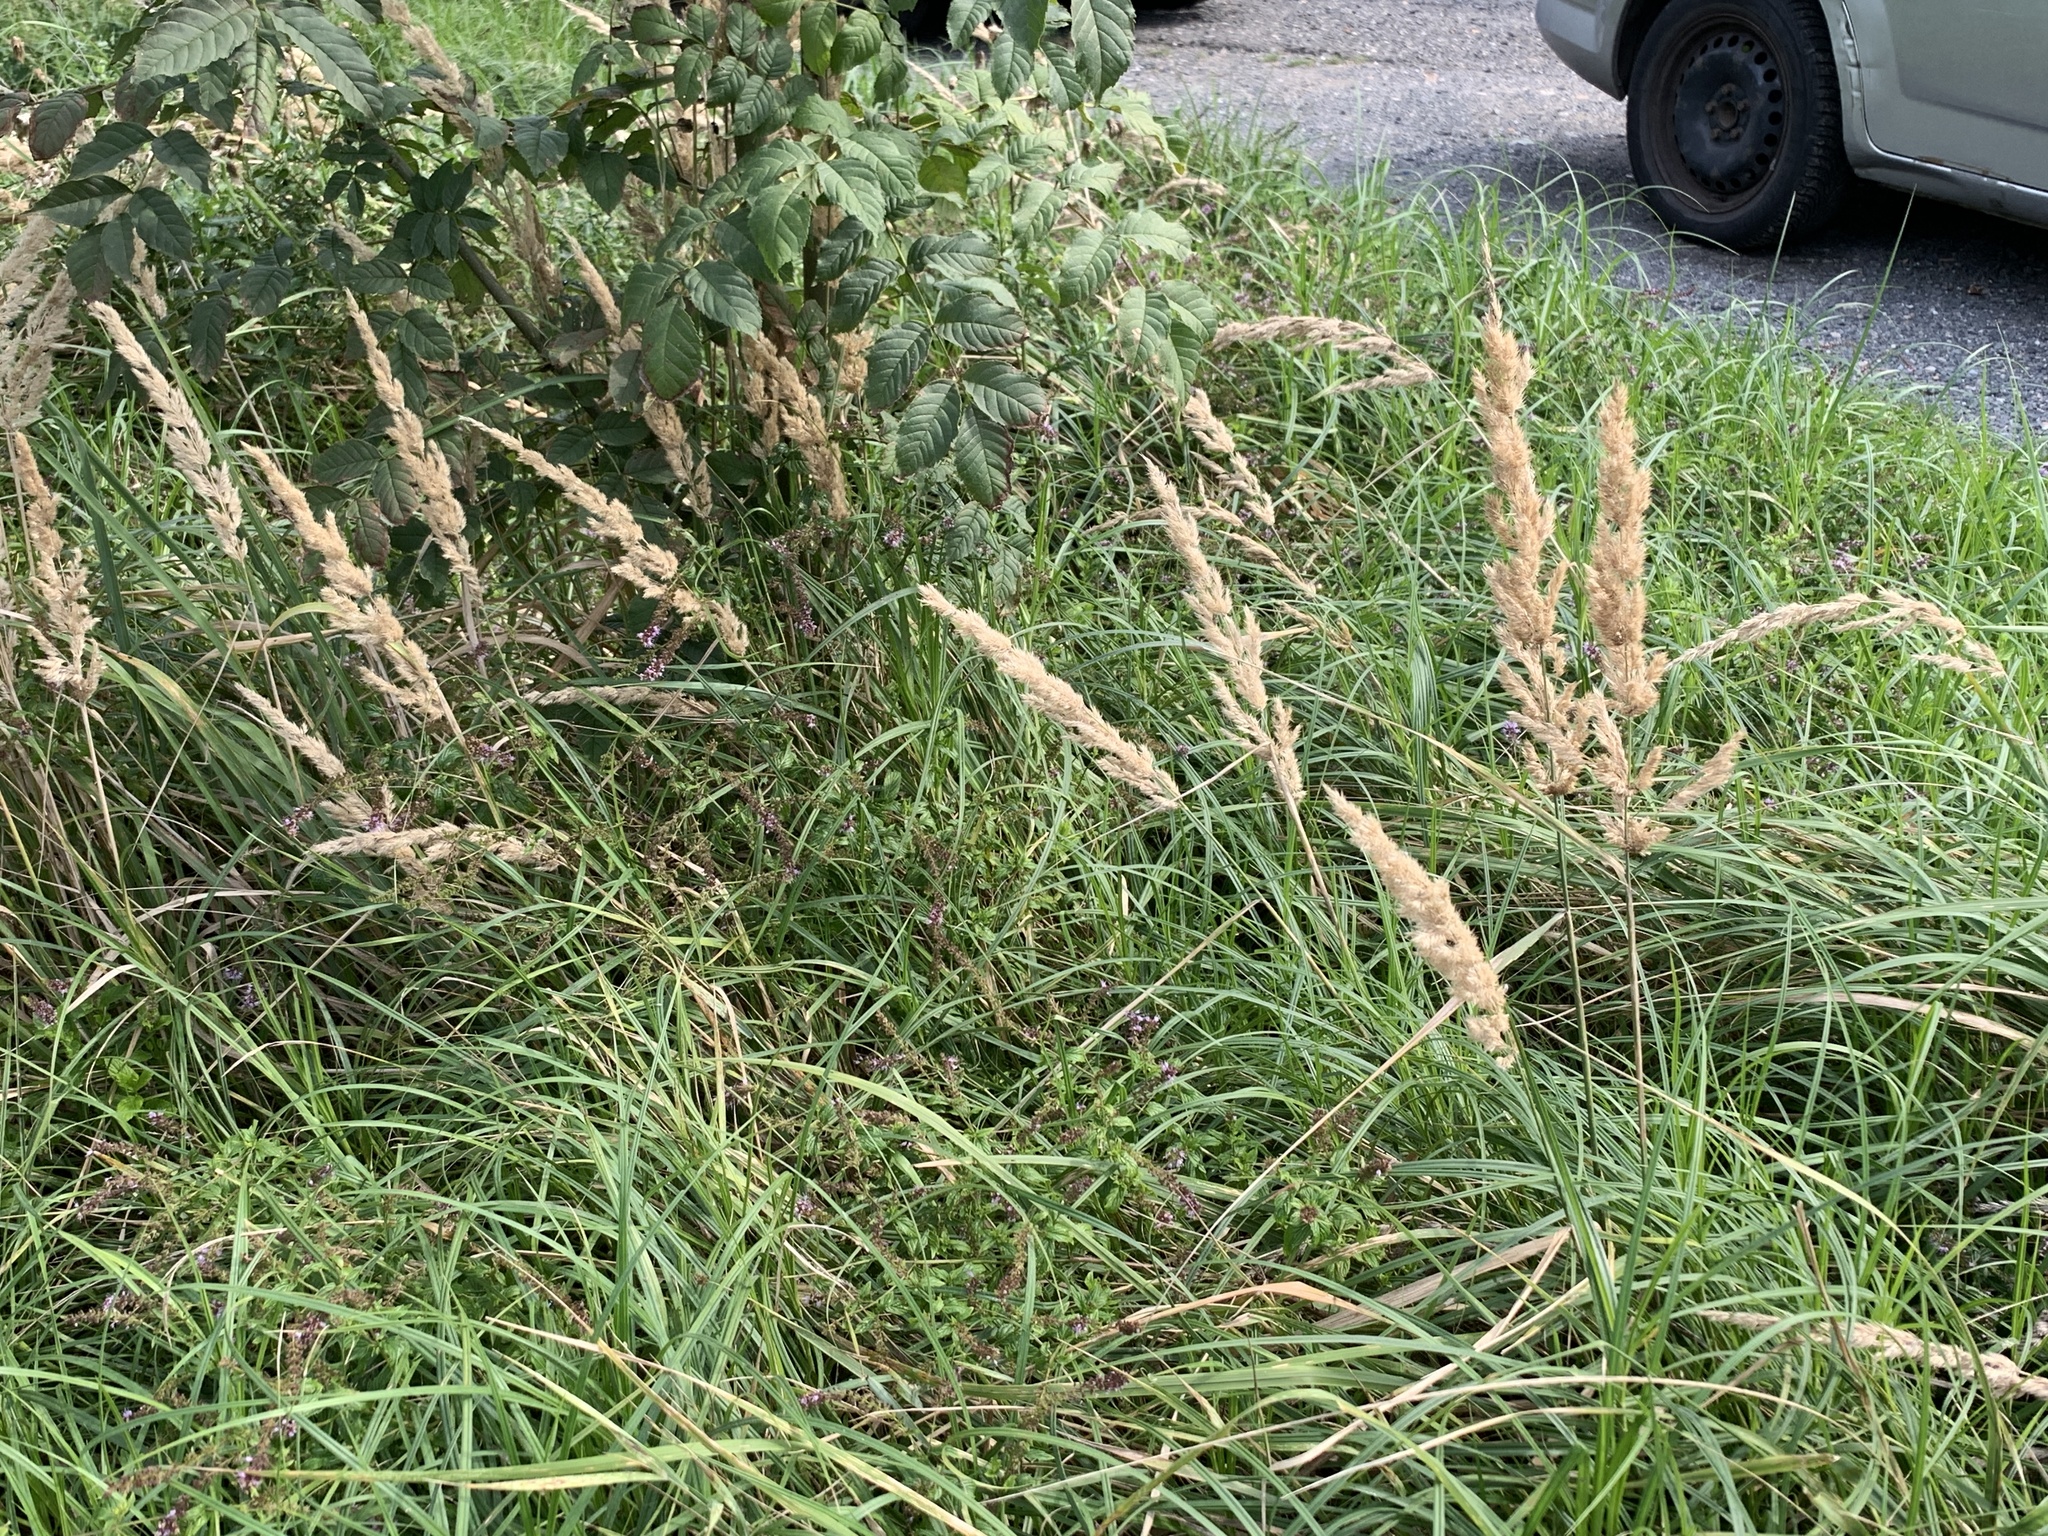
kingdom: Plantae
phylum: Tracheophyta
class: Liliopsida
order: Poales
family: Poaceae
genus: Calamagrostis
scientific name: Calamagrostis epigejos
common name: Wood small-reed
